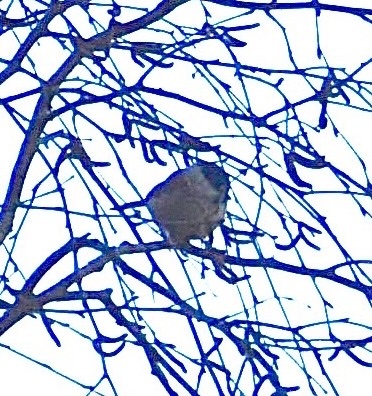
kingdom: Animalia
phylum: Chordata
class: Aves
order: Passeriformes
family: Paridae
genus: Poecile
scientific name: Poecile palustris
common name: Marsh tit
